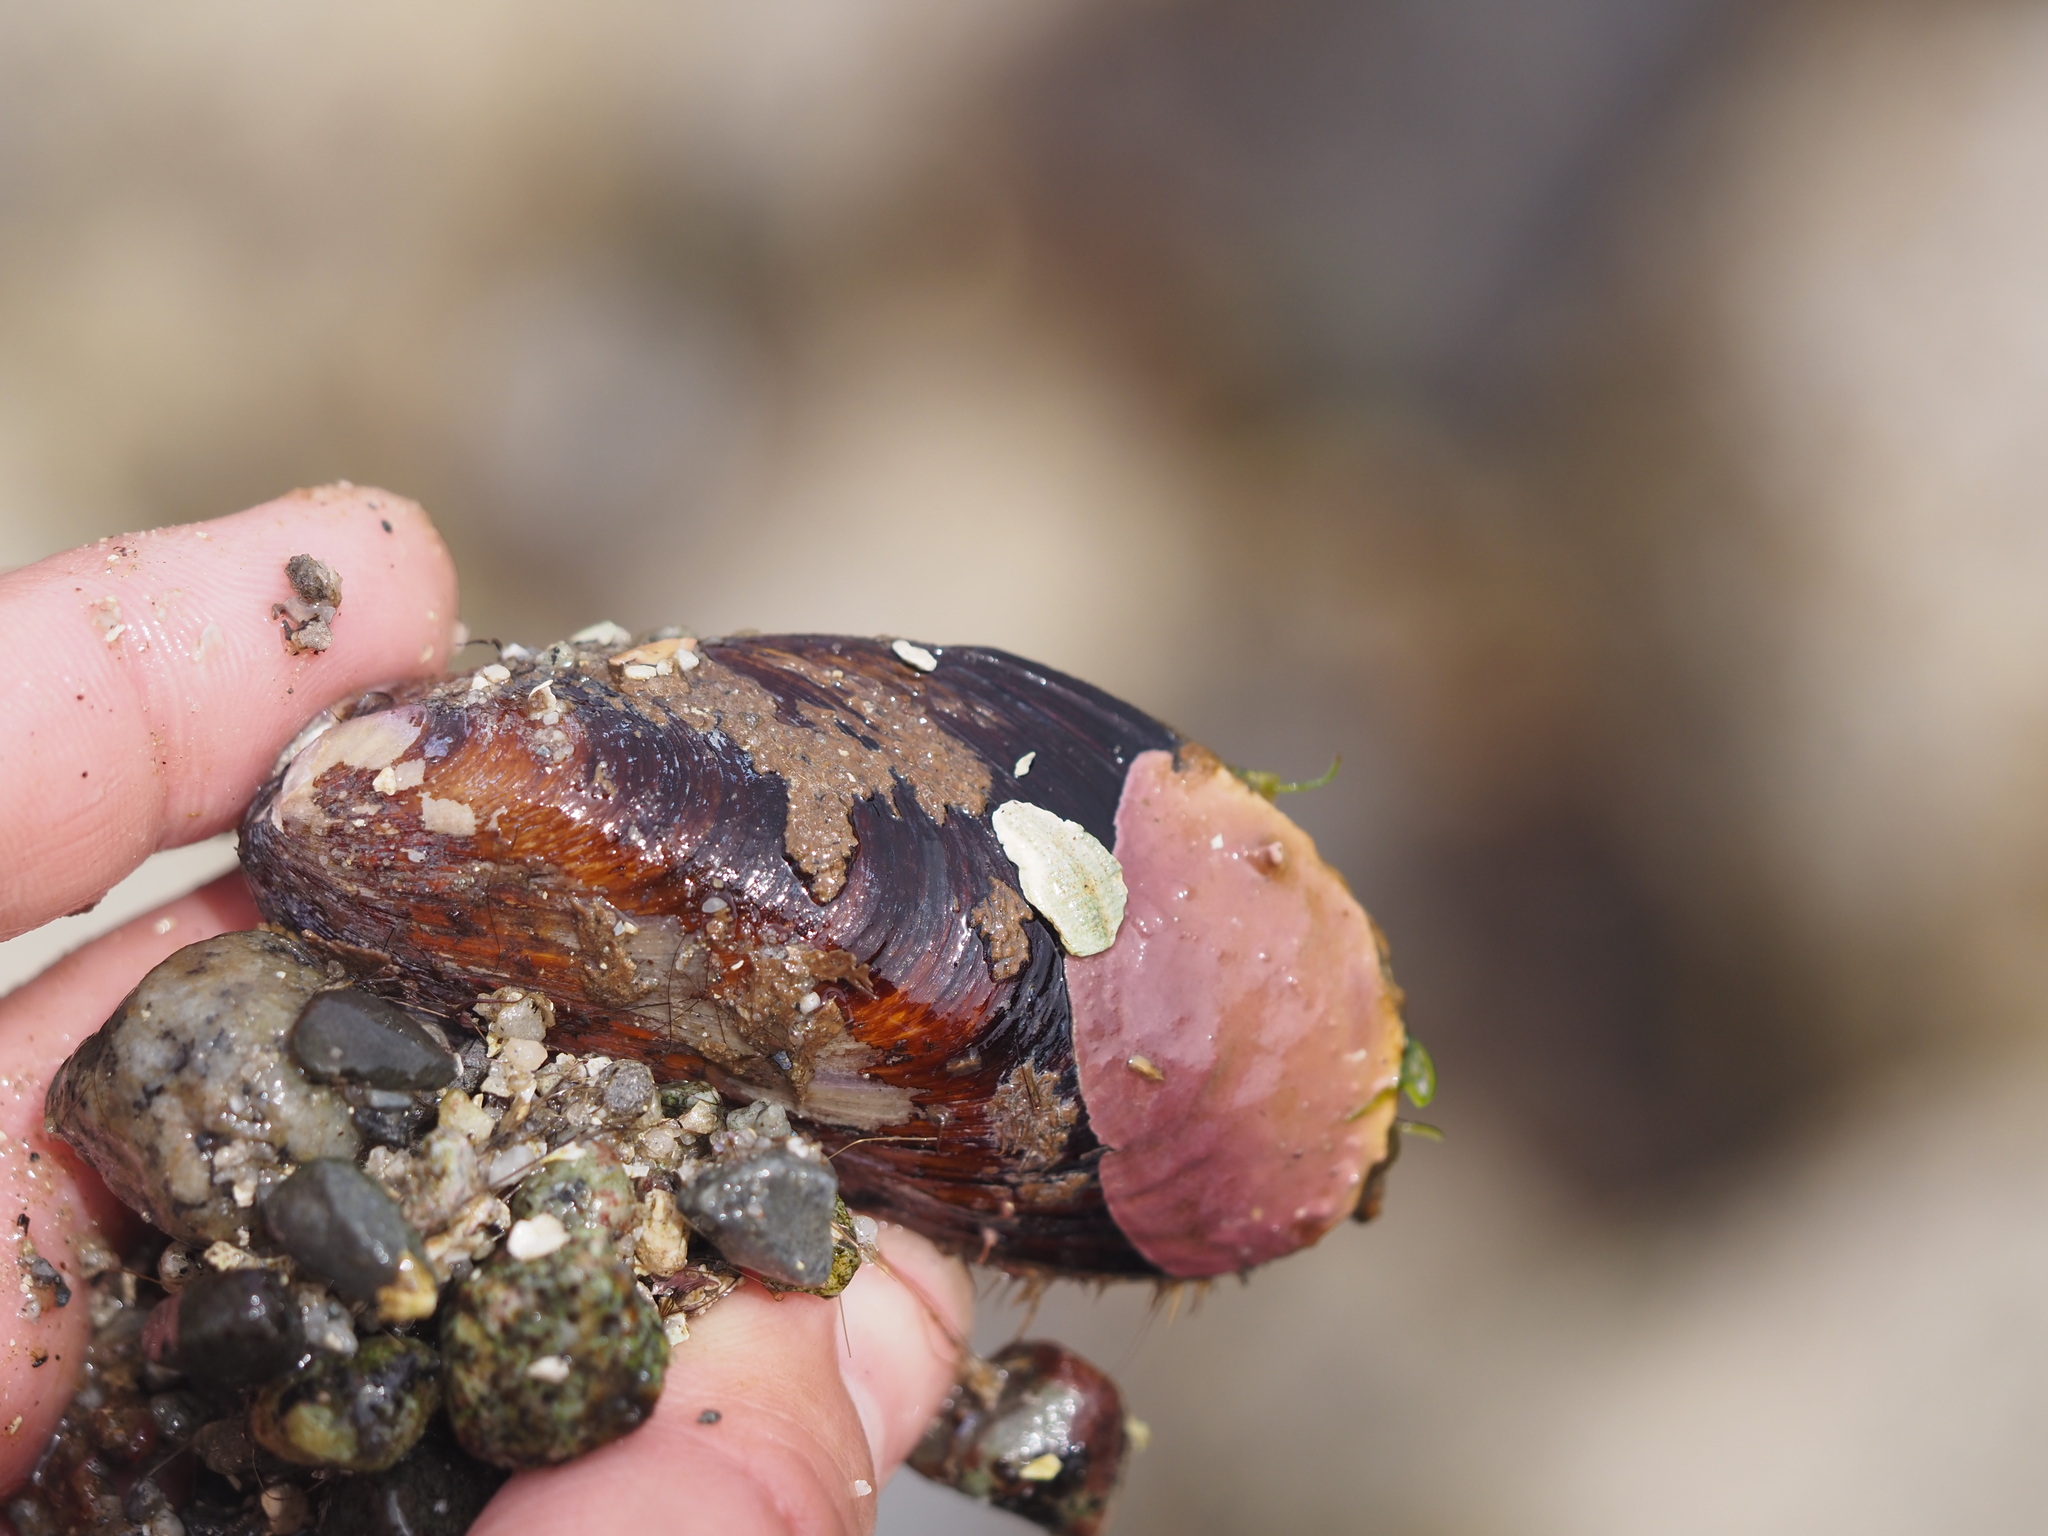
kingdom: Animalia
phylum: Mollusca
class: Bivalvia
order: Mytilida
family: Mytilidae
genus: Modiolus
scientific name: Modiolus modiolus
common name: Horse-mussel
